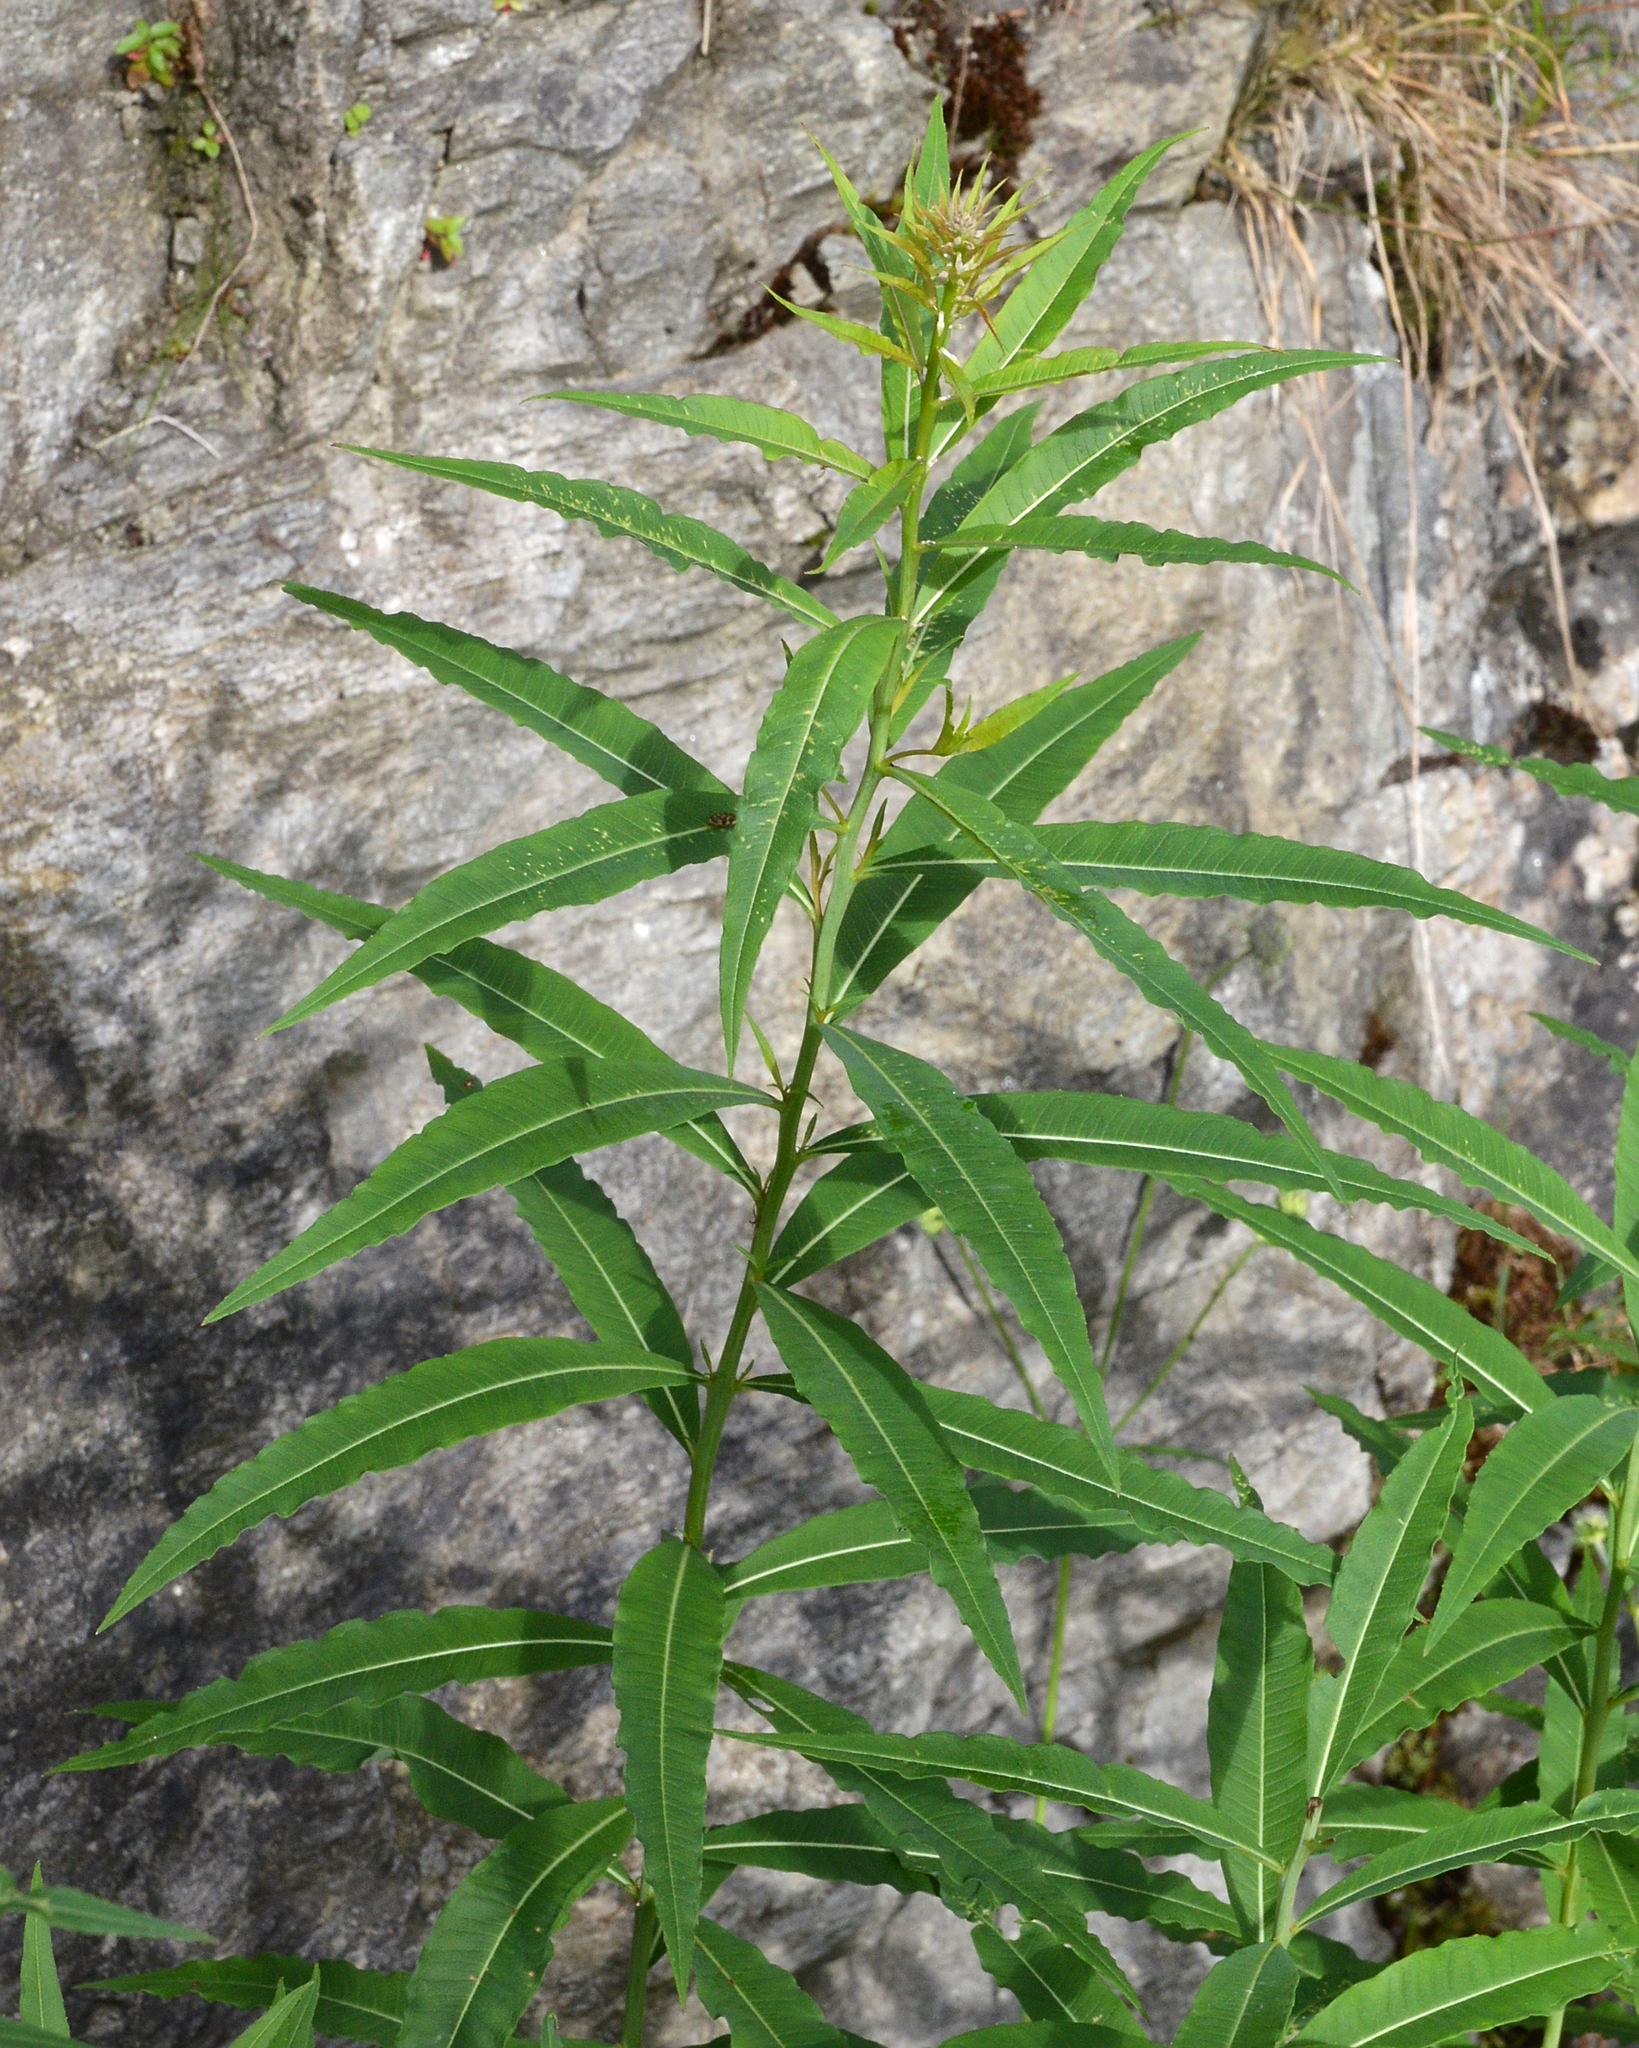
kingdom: Plantae
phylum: Tracheophyta
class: Magnoliopsida
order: Myrtales
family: Onagraceae
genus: Chamaenerion
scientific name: Chamaenerion angustifolium
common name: Fireweed
